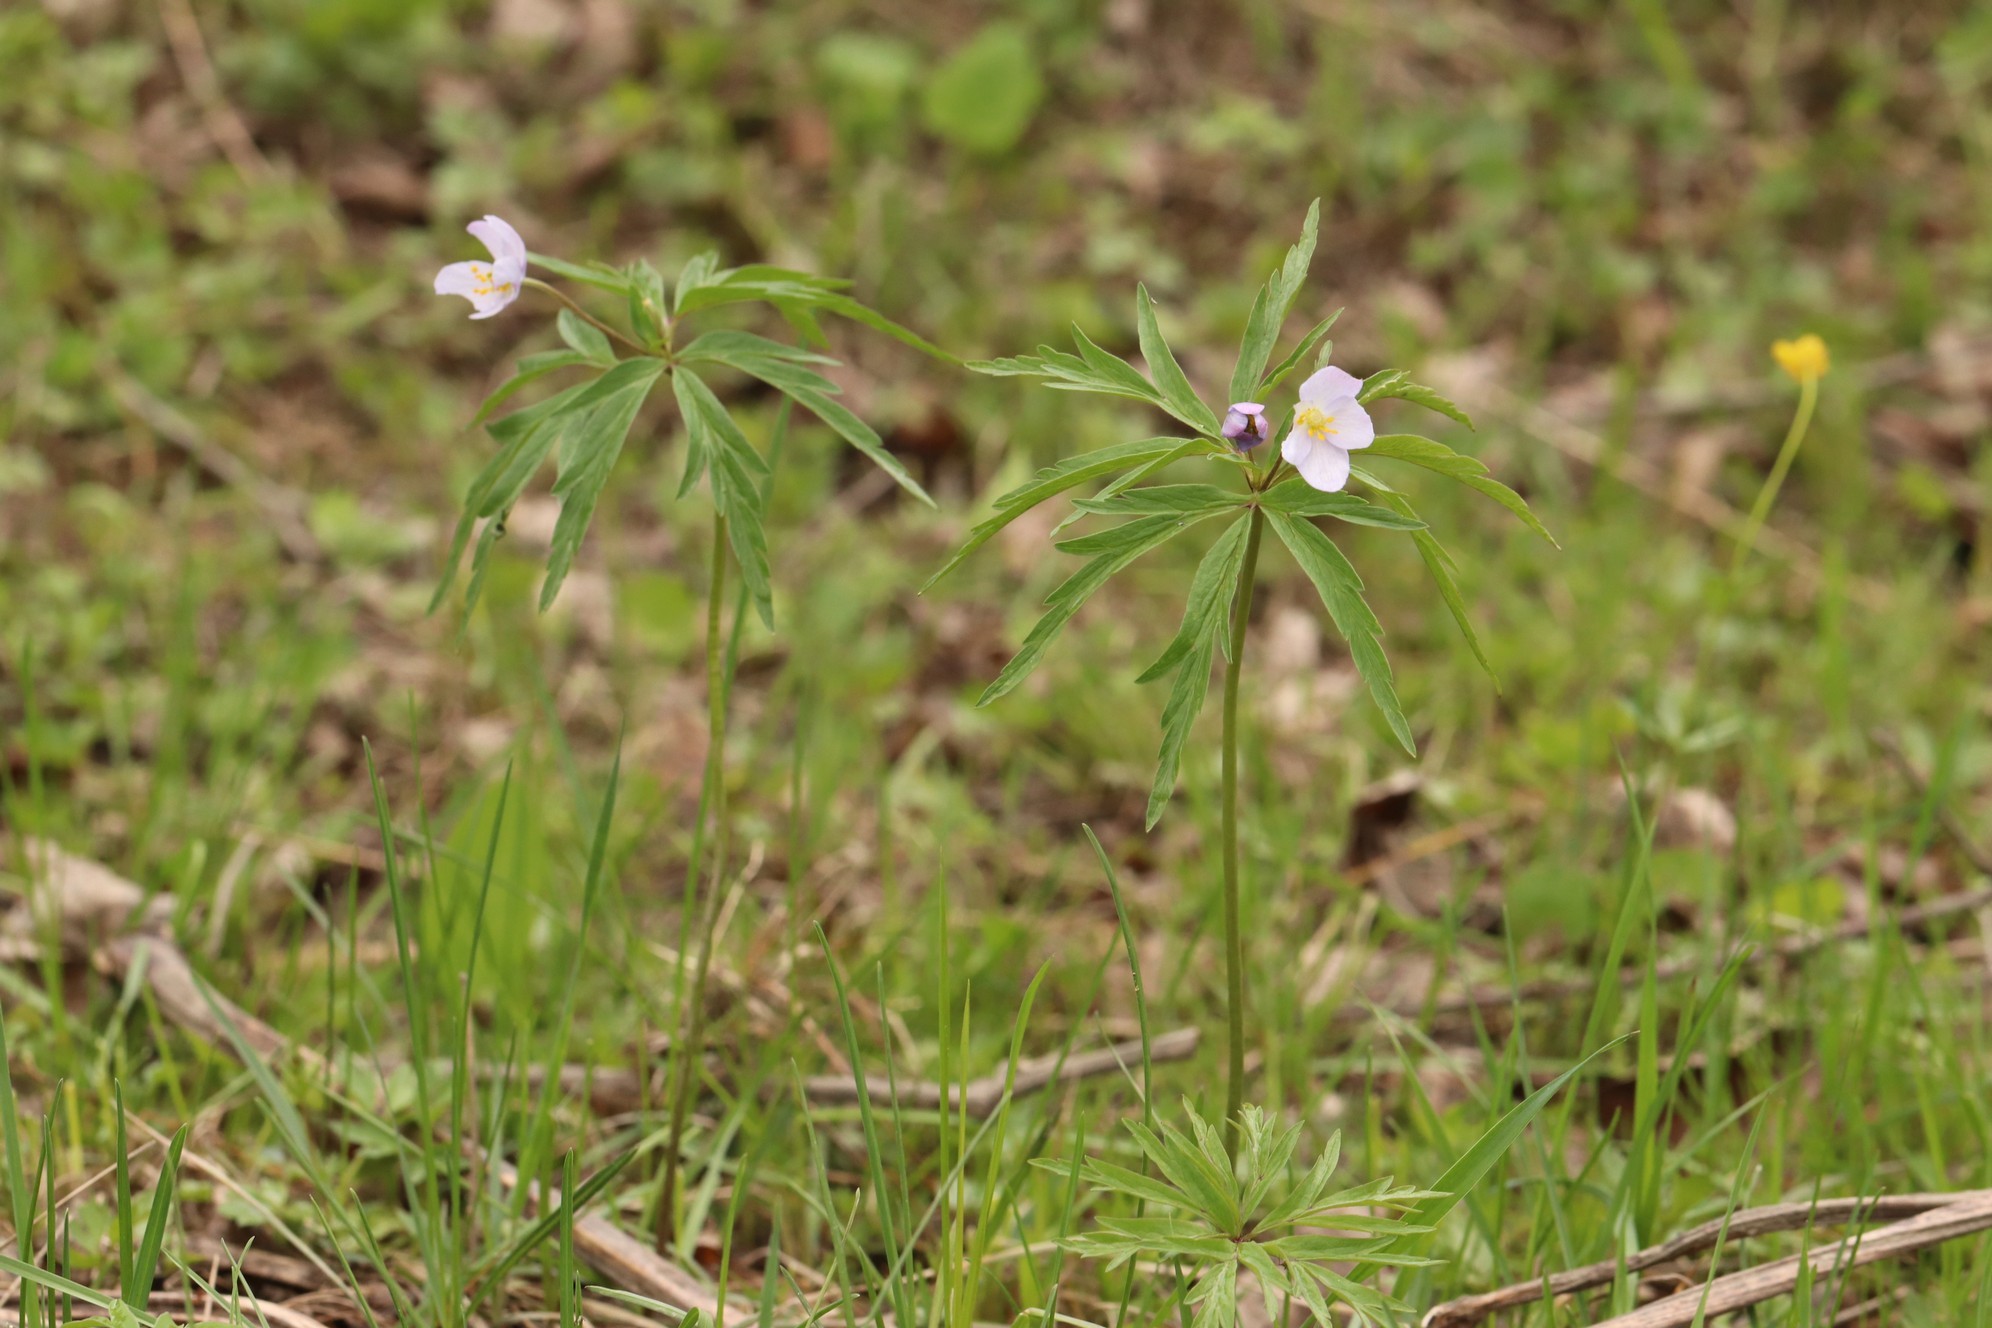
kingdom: Plantae
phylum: Tracheophyta
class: Magnoliopsida
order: Ranunculales
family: Ranunculaceae
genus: Anemone
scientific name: Anemone caerulea
